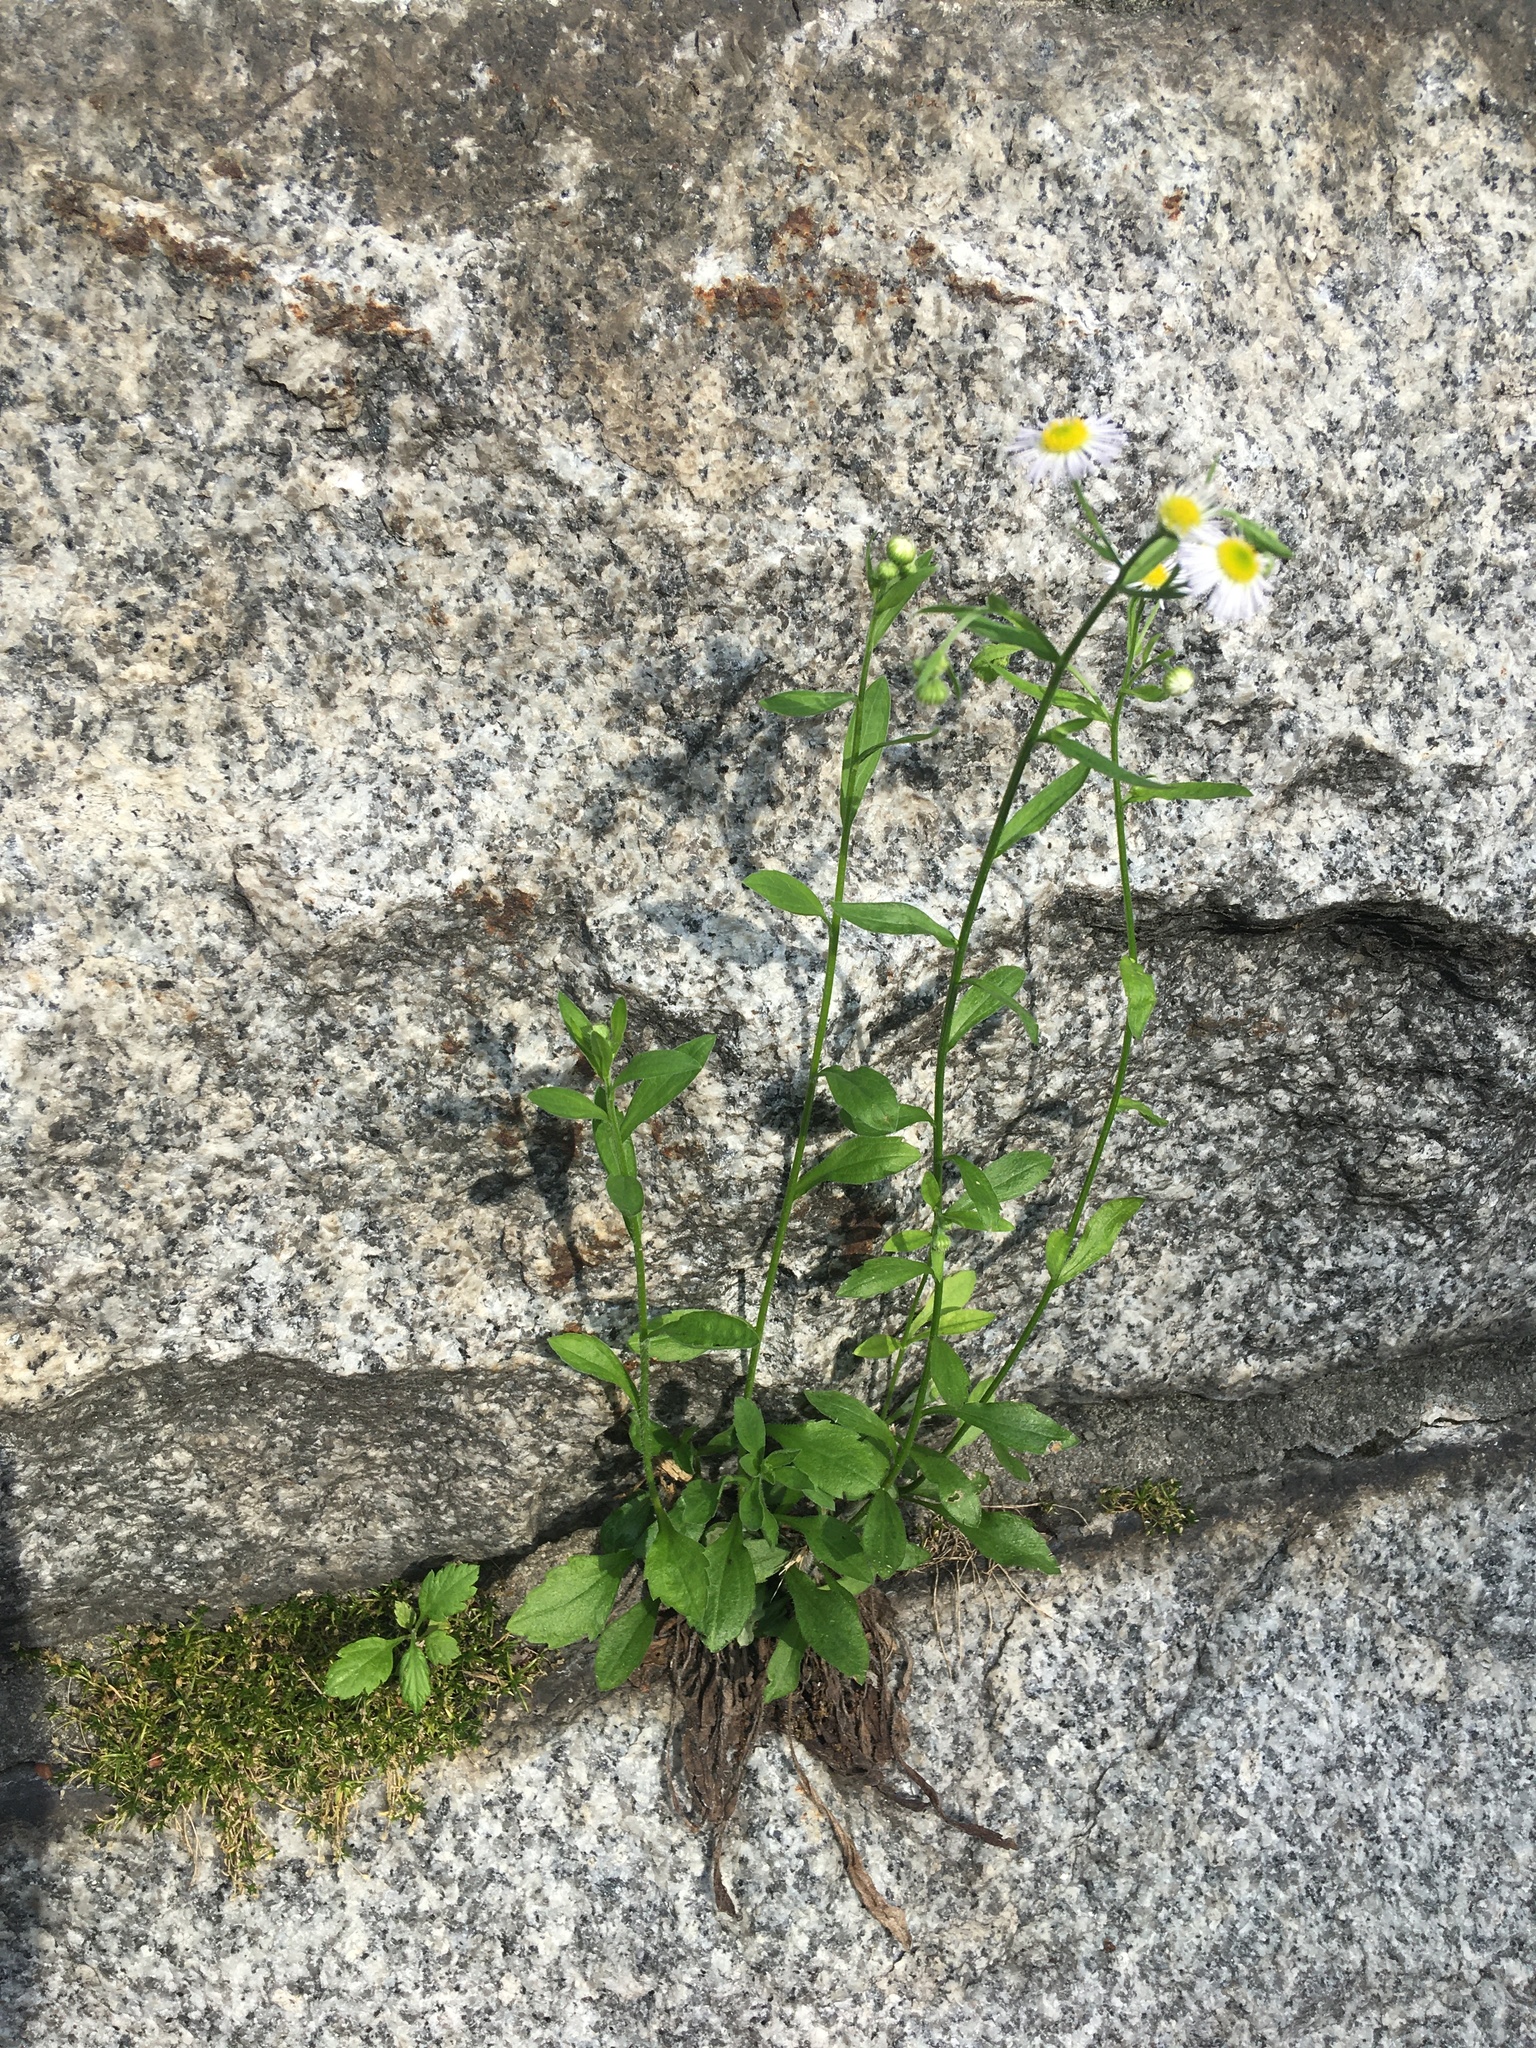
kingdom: Plantae
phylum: Tracheophyta
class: Magnoliopsida
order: Asterales
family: Asteraceae
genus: Erigeron
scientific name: Erigeron annuus
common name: Tall fleabane
